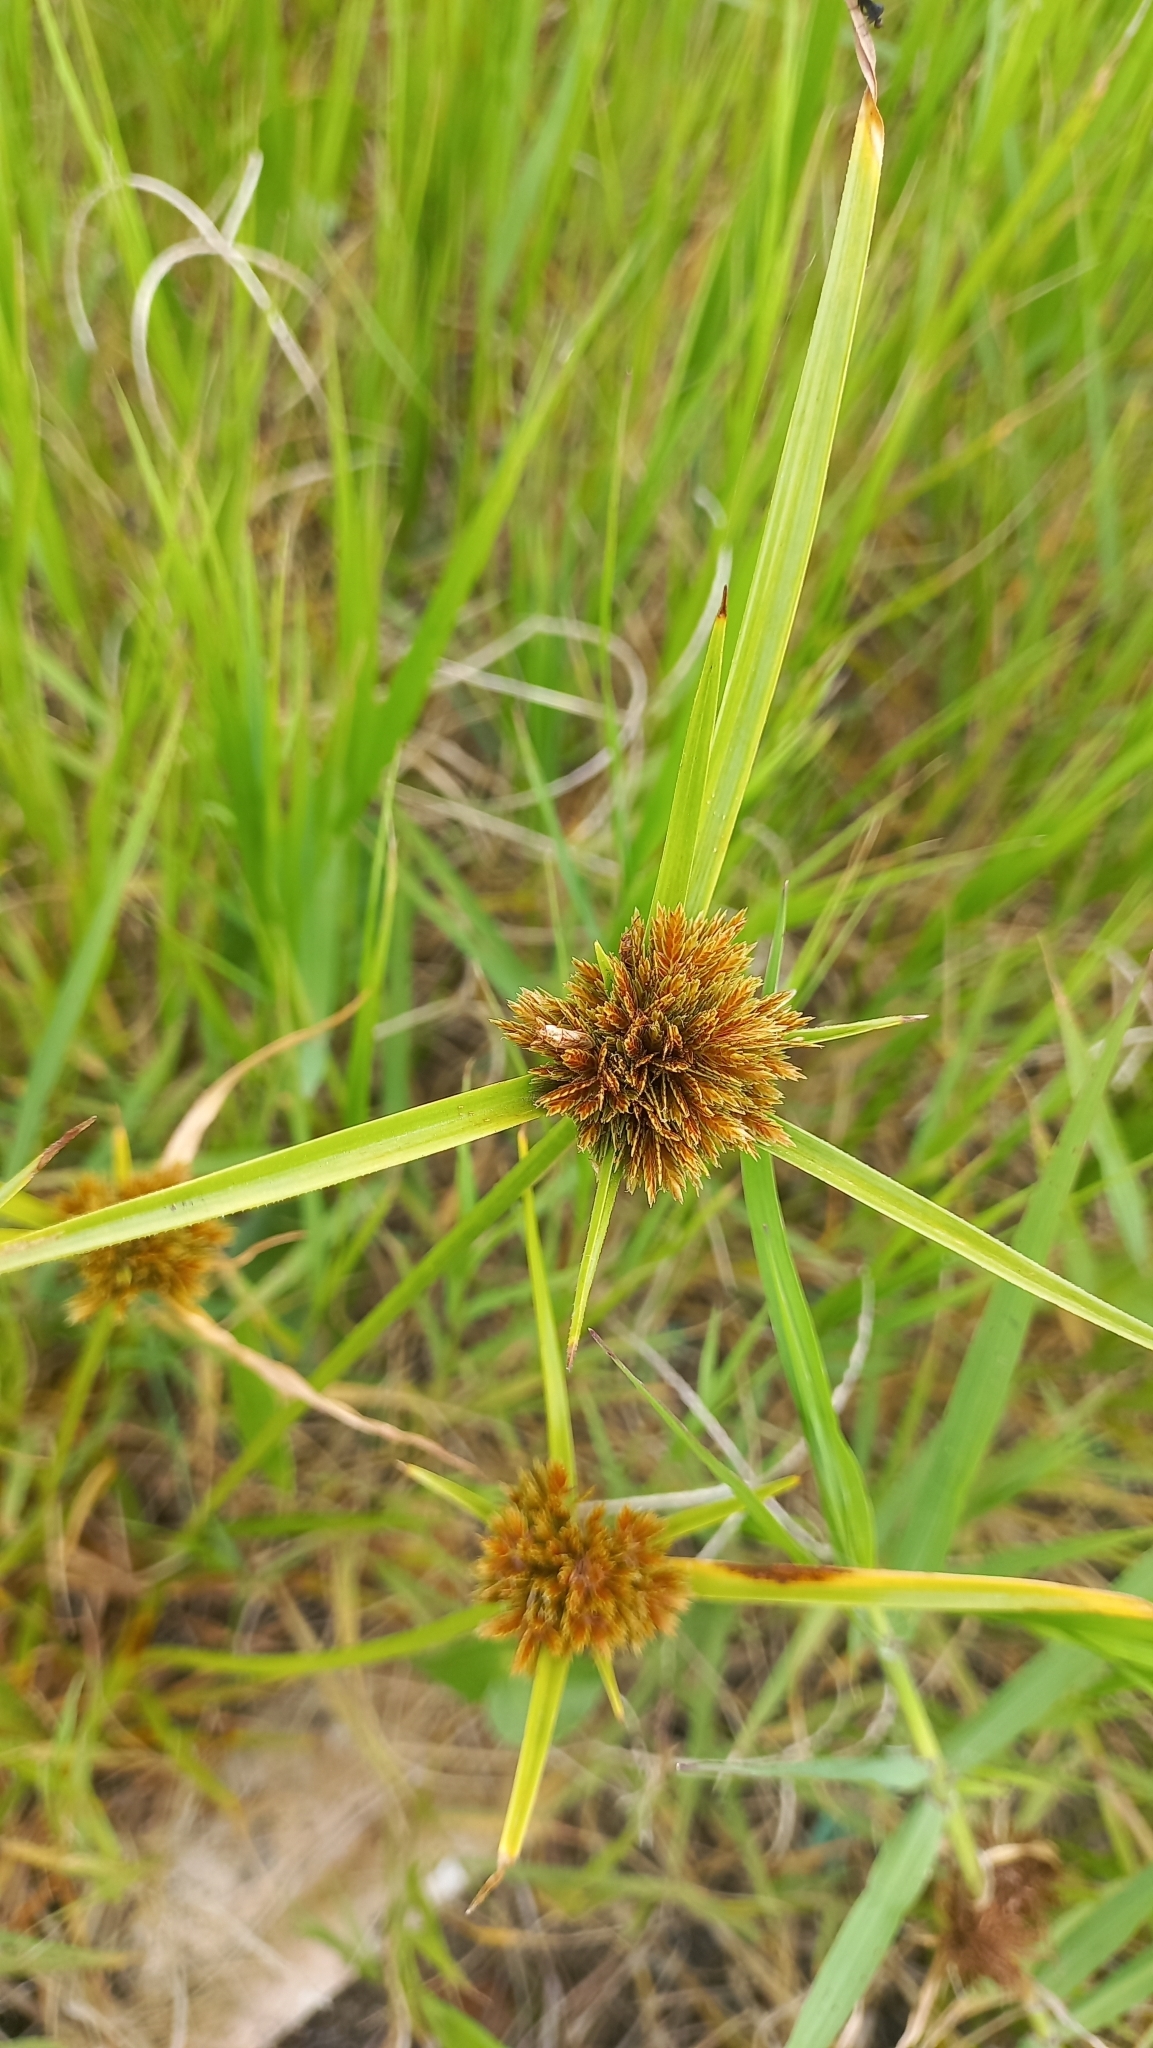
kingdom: Plantae
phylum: Tracheophyta
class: Liliopsida
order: Poales
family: Cyperaceae
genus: Cyperus
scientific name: Cyperus polystachyos
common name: Bunchy flat sedge
